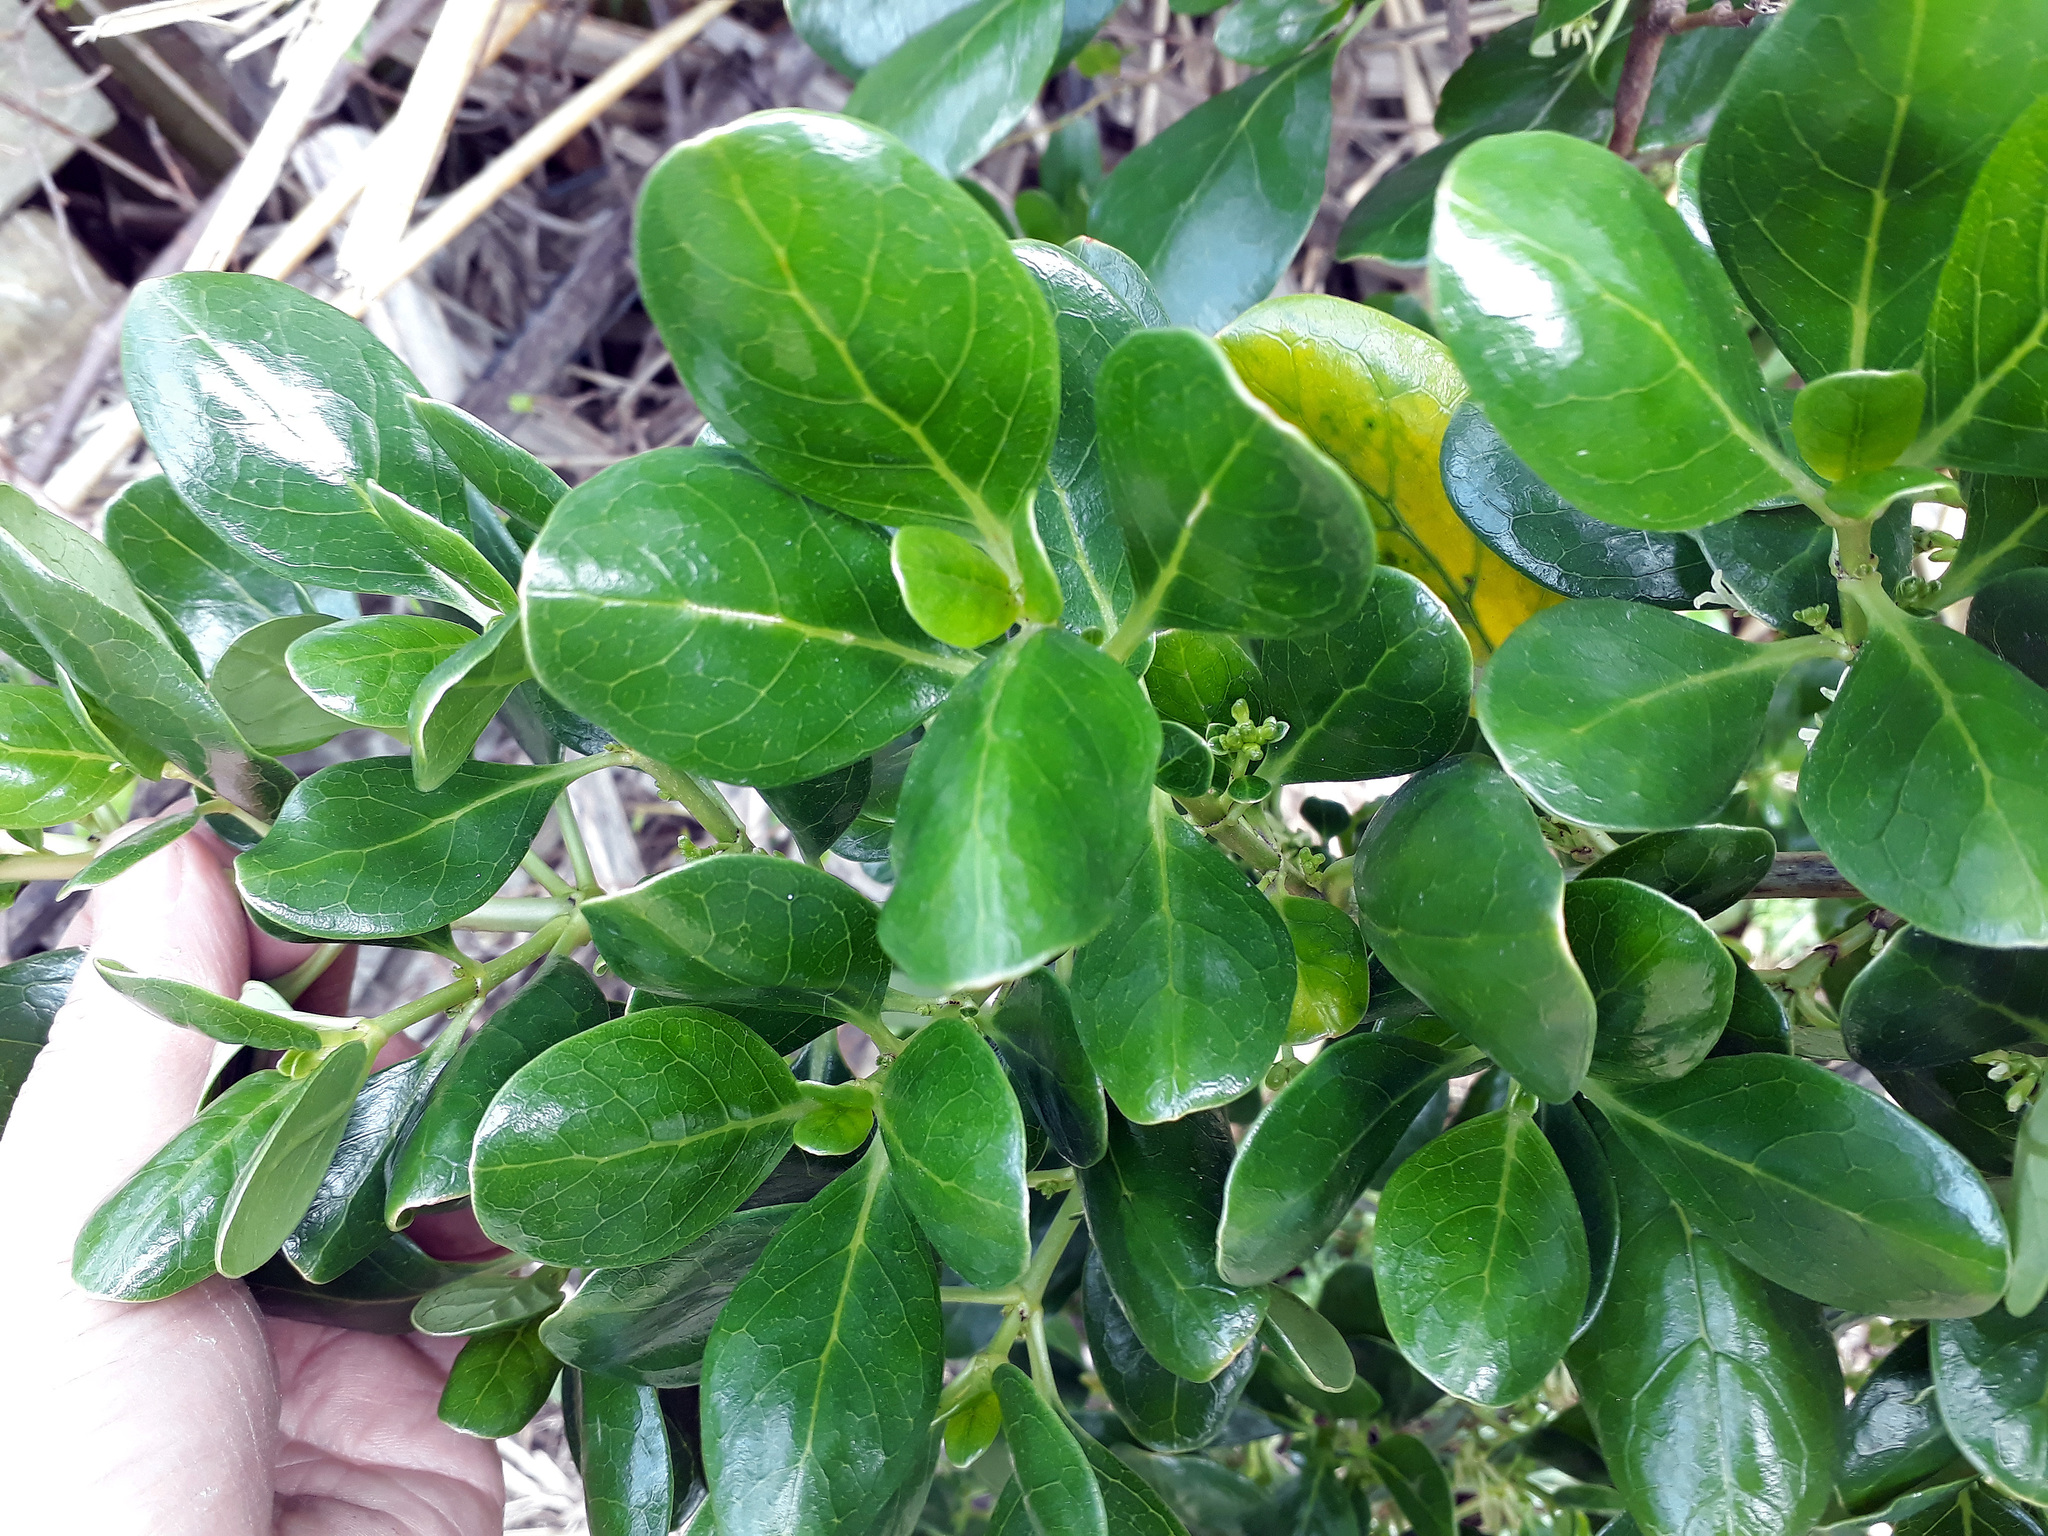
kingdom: Plantae
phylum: Tracheophyta
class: Magnoliopsida
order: Gentianales
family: Rubiaceae
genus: Coprosma
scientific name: Coprosma repens
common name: Tree bedstraw
